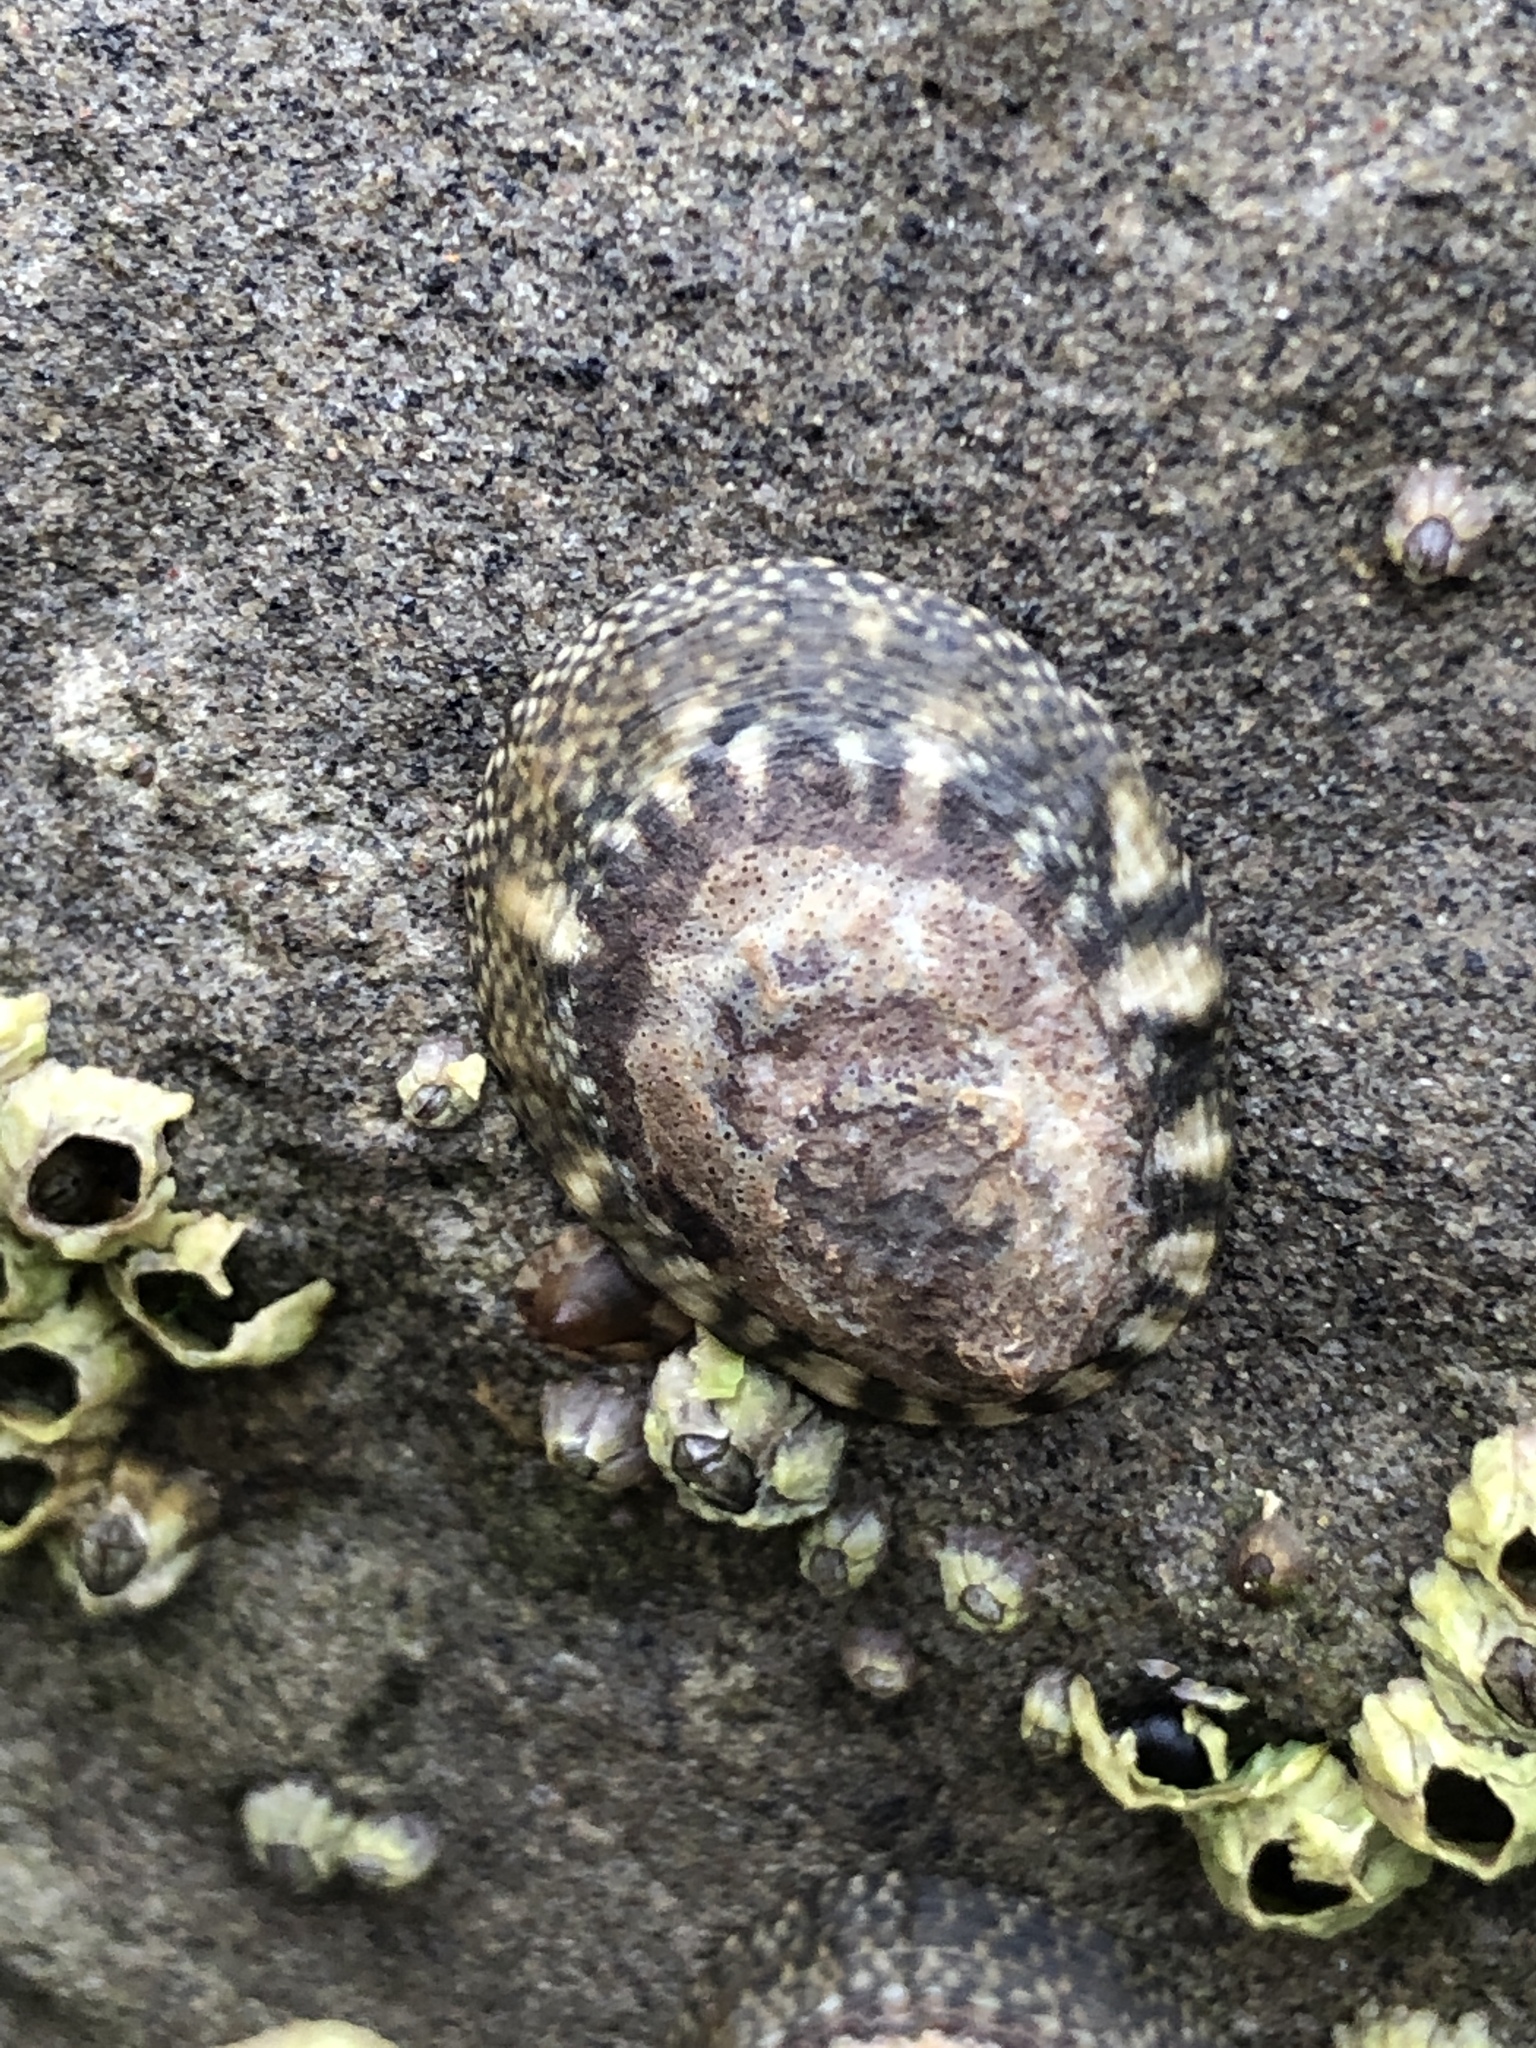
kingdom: Animalia
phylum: Mollusca
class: Gastropoda
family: Lottiidae
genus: Lottia
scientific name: Lottia gigantea
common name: Owl limpet
